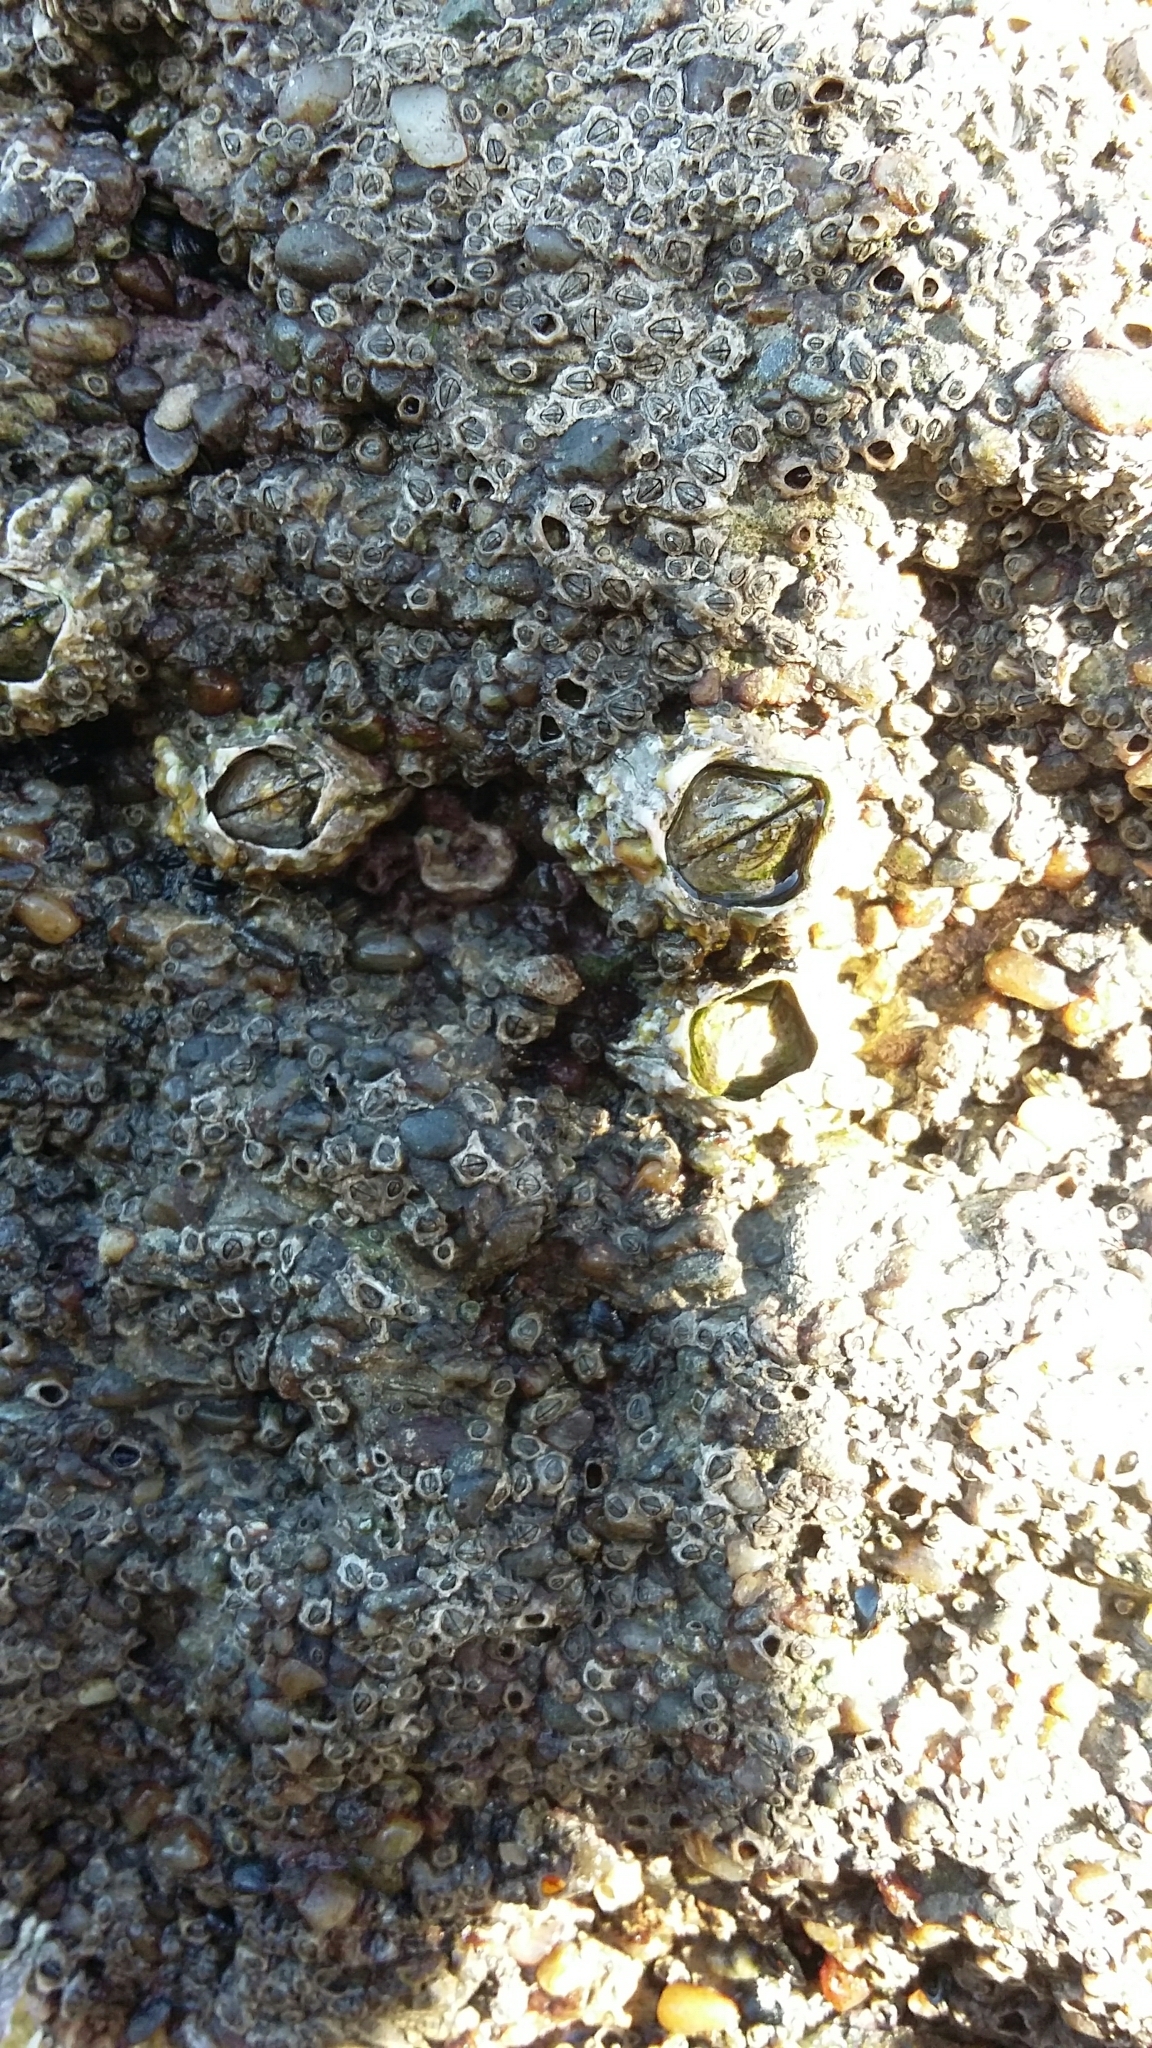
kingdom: Animalia
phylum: Arthropoda
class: Maxillopoda
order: Sessilia
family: Tetraclitidae
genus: Epopella
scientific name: Epopella plicata
